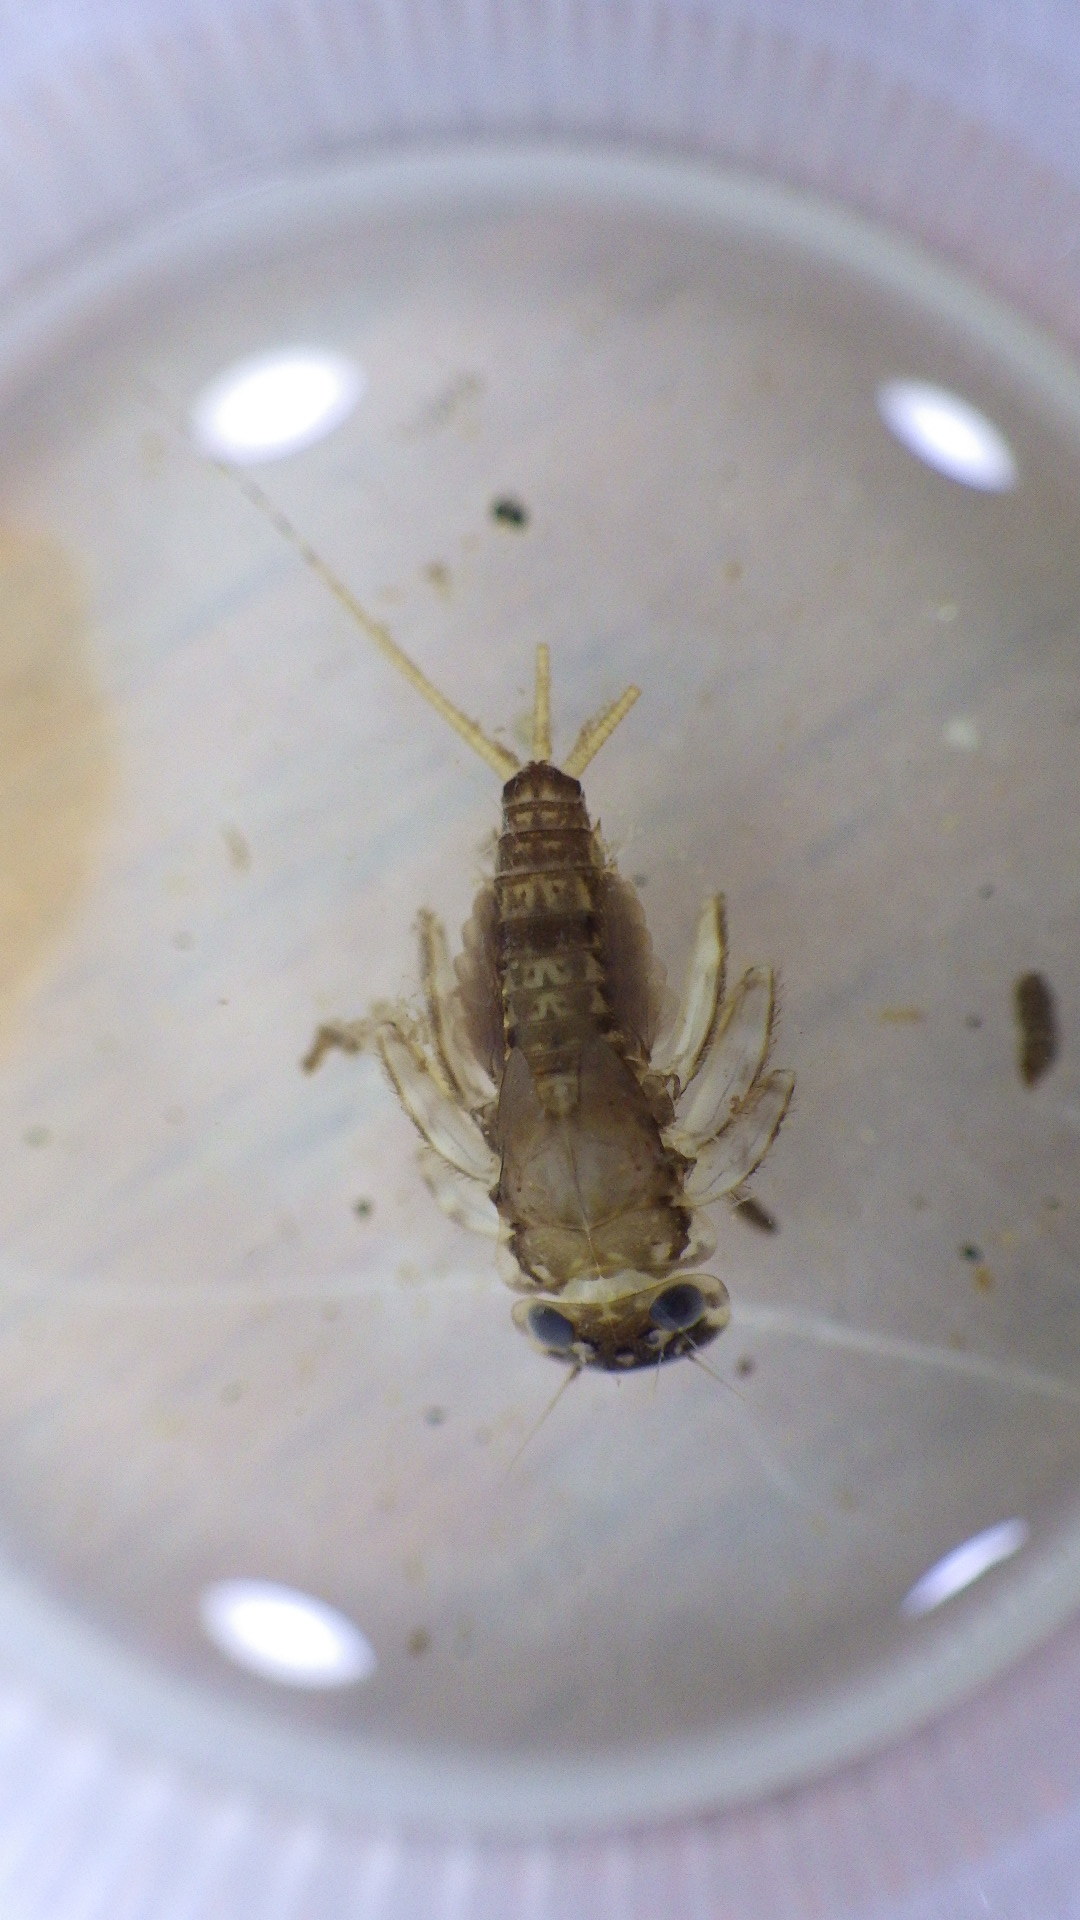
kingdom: Animalia
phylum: Arthropoda
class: Insecta
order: Ephemeroptera
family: Heptageniidae
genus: Maccaffertium
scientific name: Maccaffertium mediopunctatum
